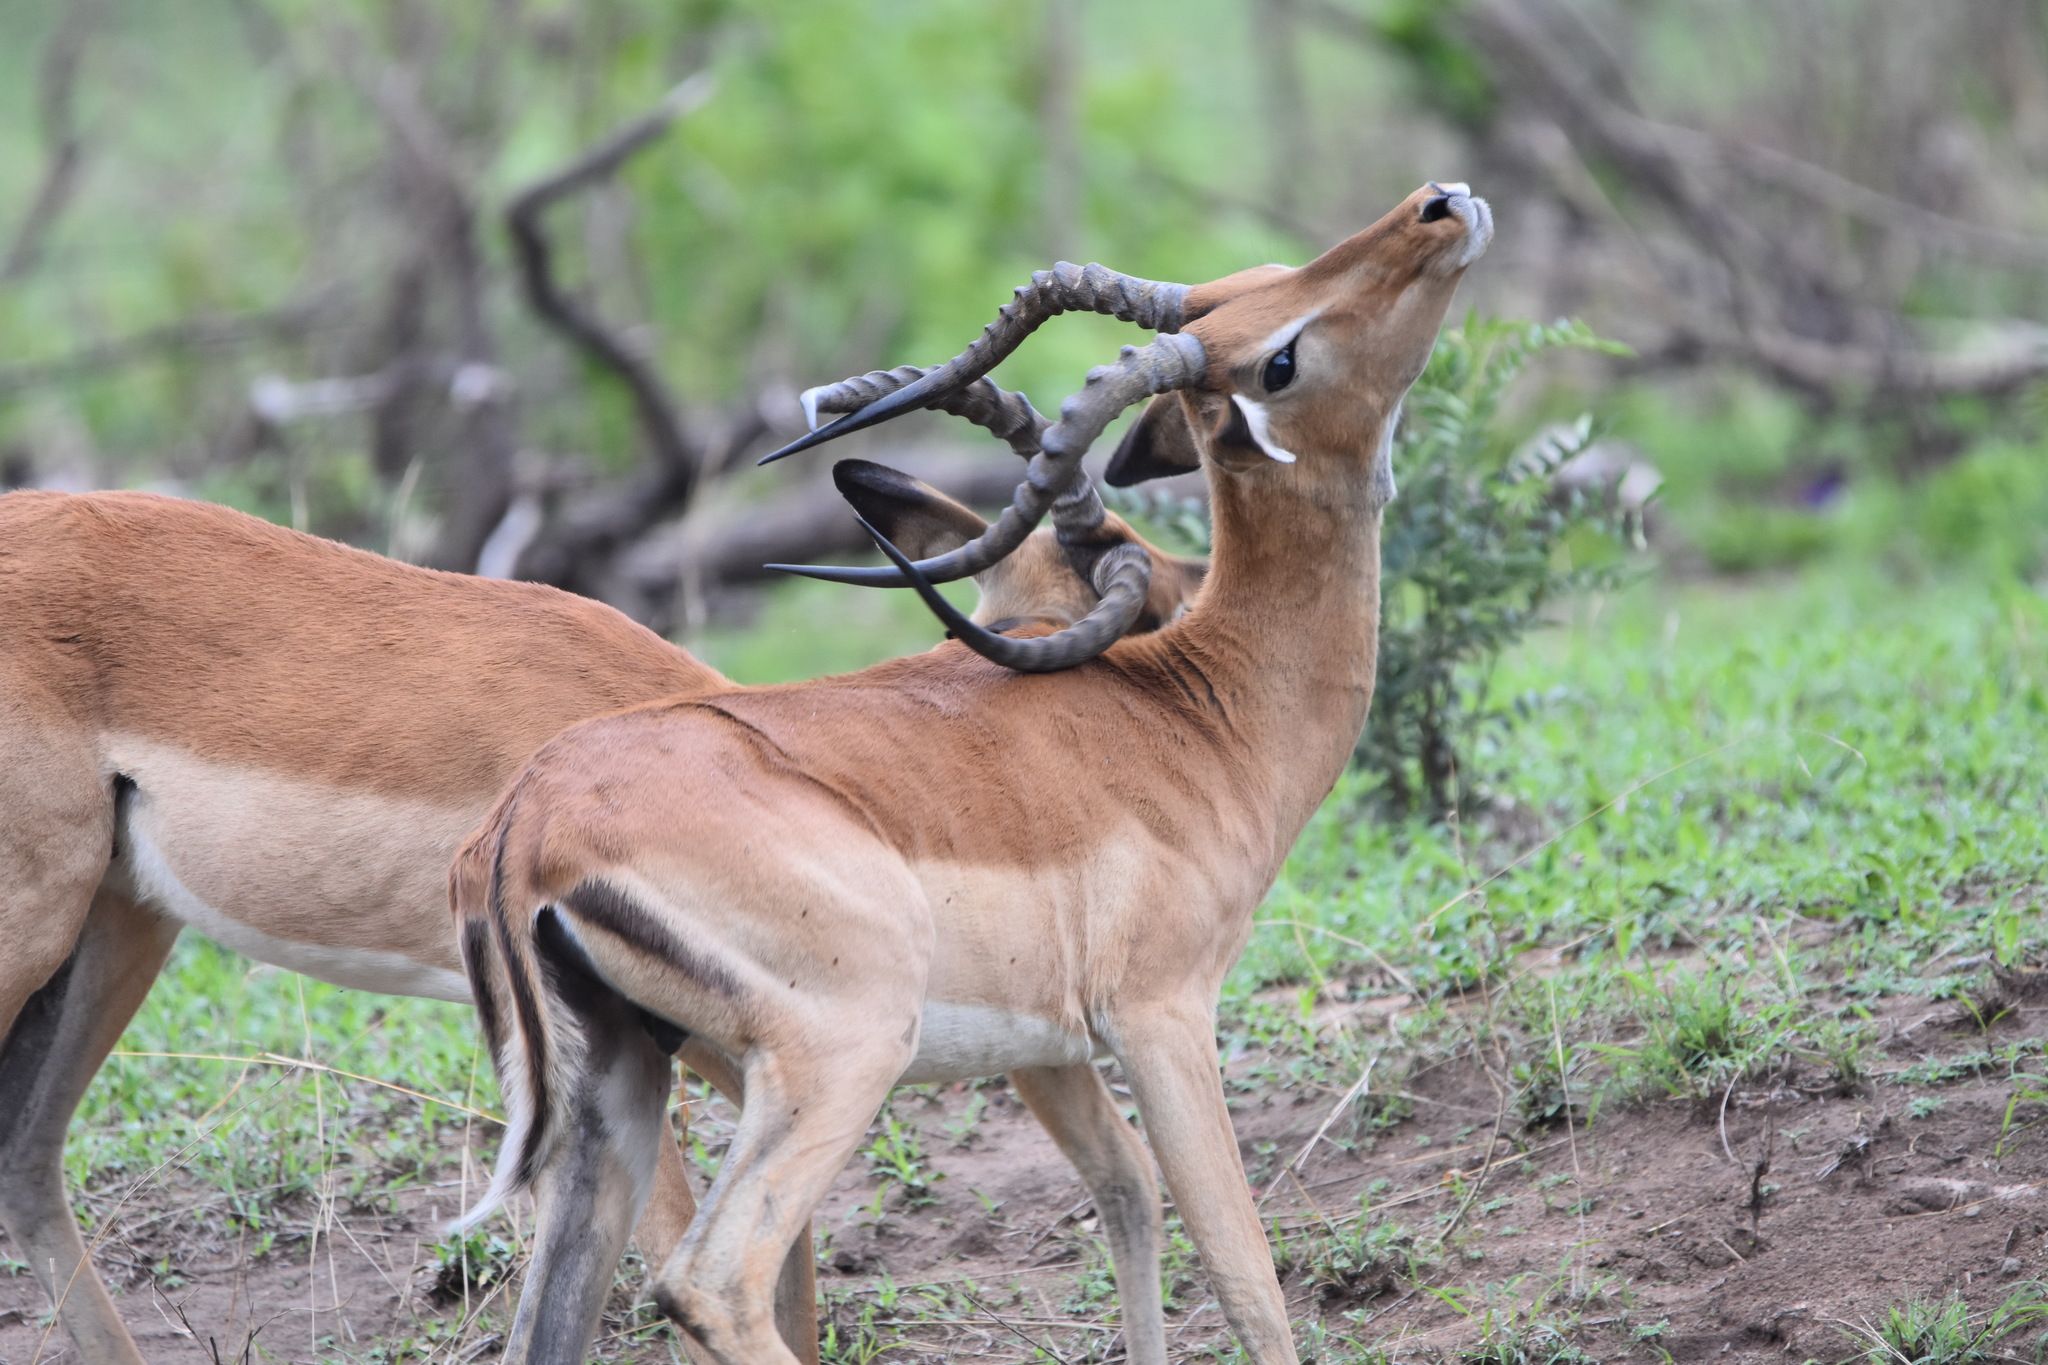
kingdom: Animalia
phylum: Chordata
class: Mammalia
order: Artiodactyla
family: Bovidae
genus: Aepyceros
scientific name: Aepyceros melampus
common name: Impala
